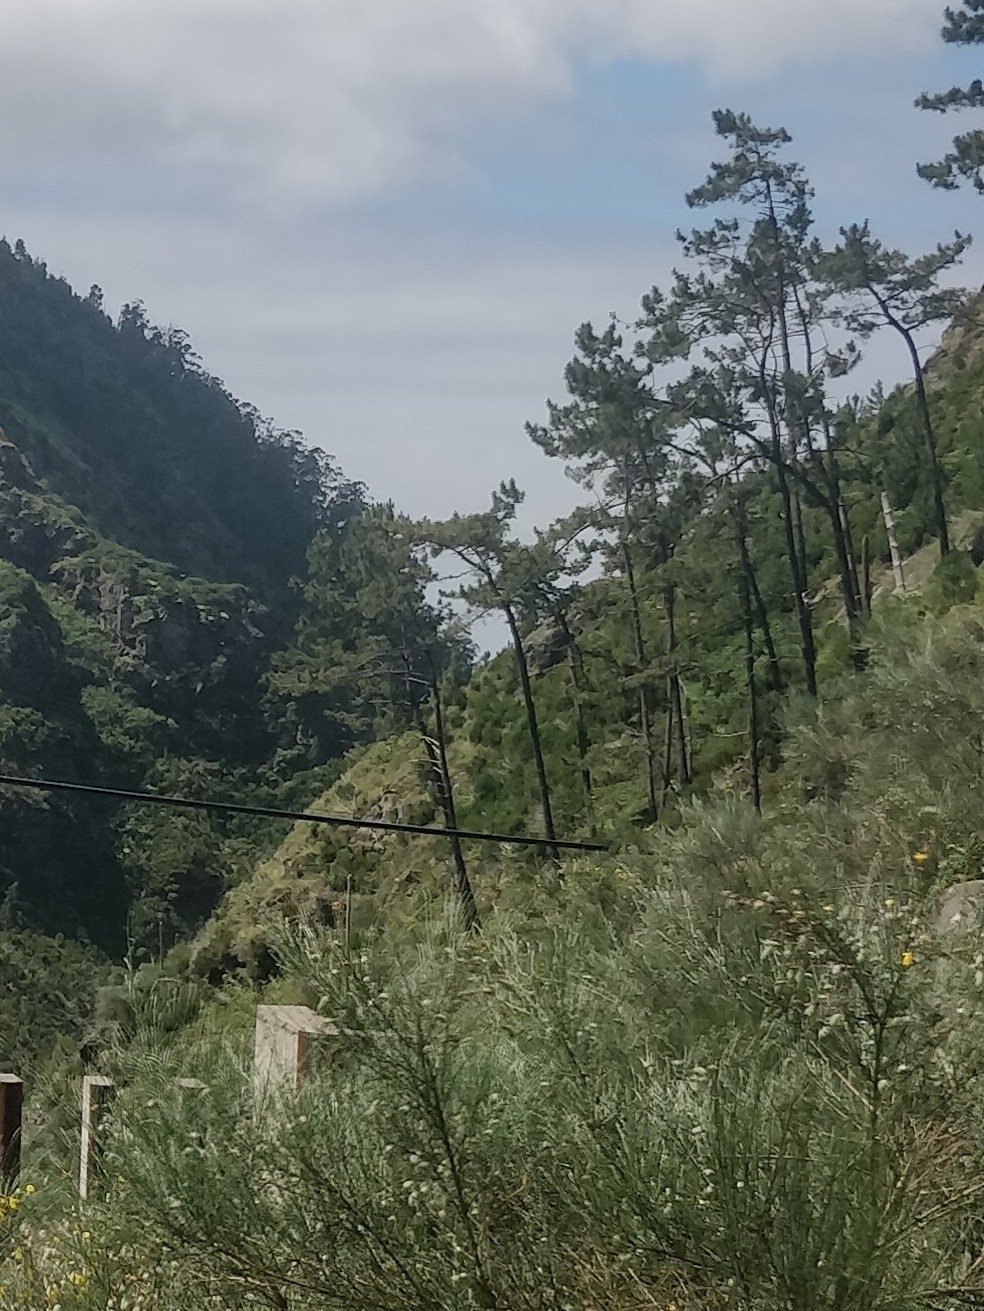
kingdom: Plantae
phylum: Tracheophyta
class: Pinopsida
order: Pinales
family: Pinaceae
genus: Pinus
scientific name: Pinus pinaster
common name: Maritime pine
